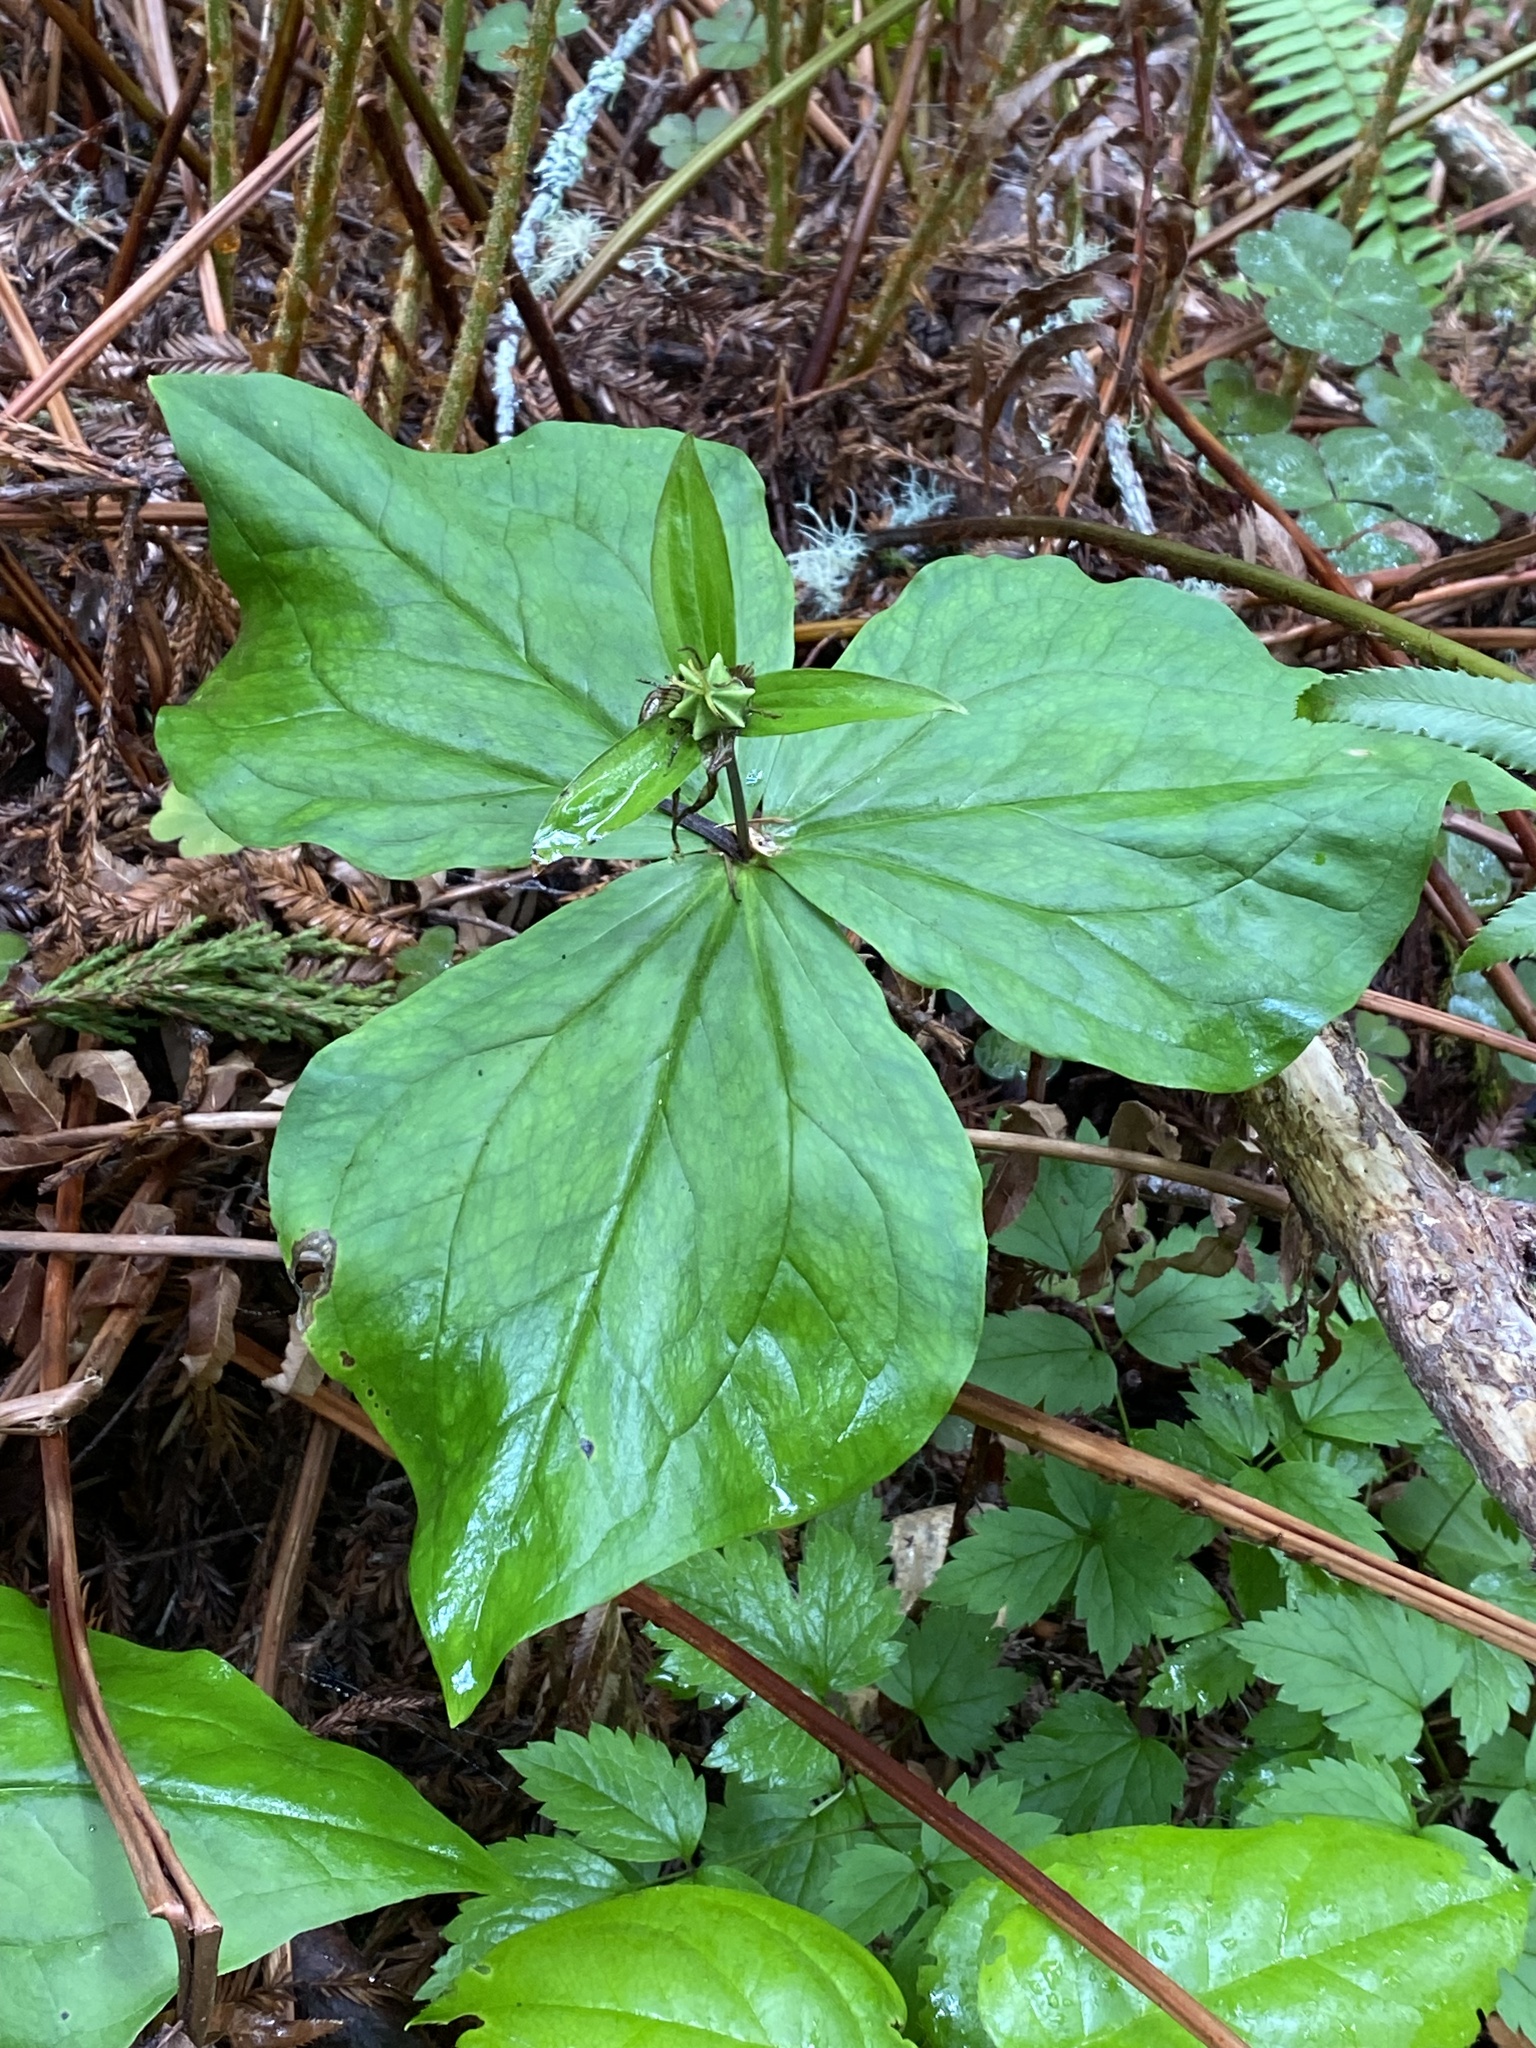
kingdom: Plantae
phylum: Tracheophyta
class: Liliopsida
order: Liliales
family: Melanthiaceae
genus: Trillium
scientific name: Trillium ovatum
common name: Pacific trillium
